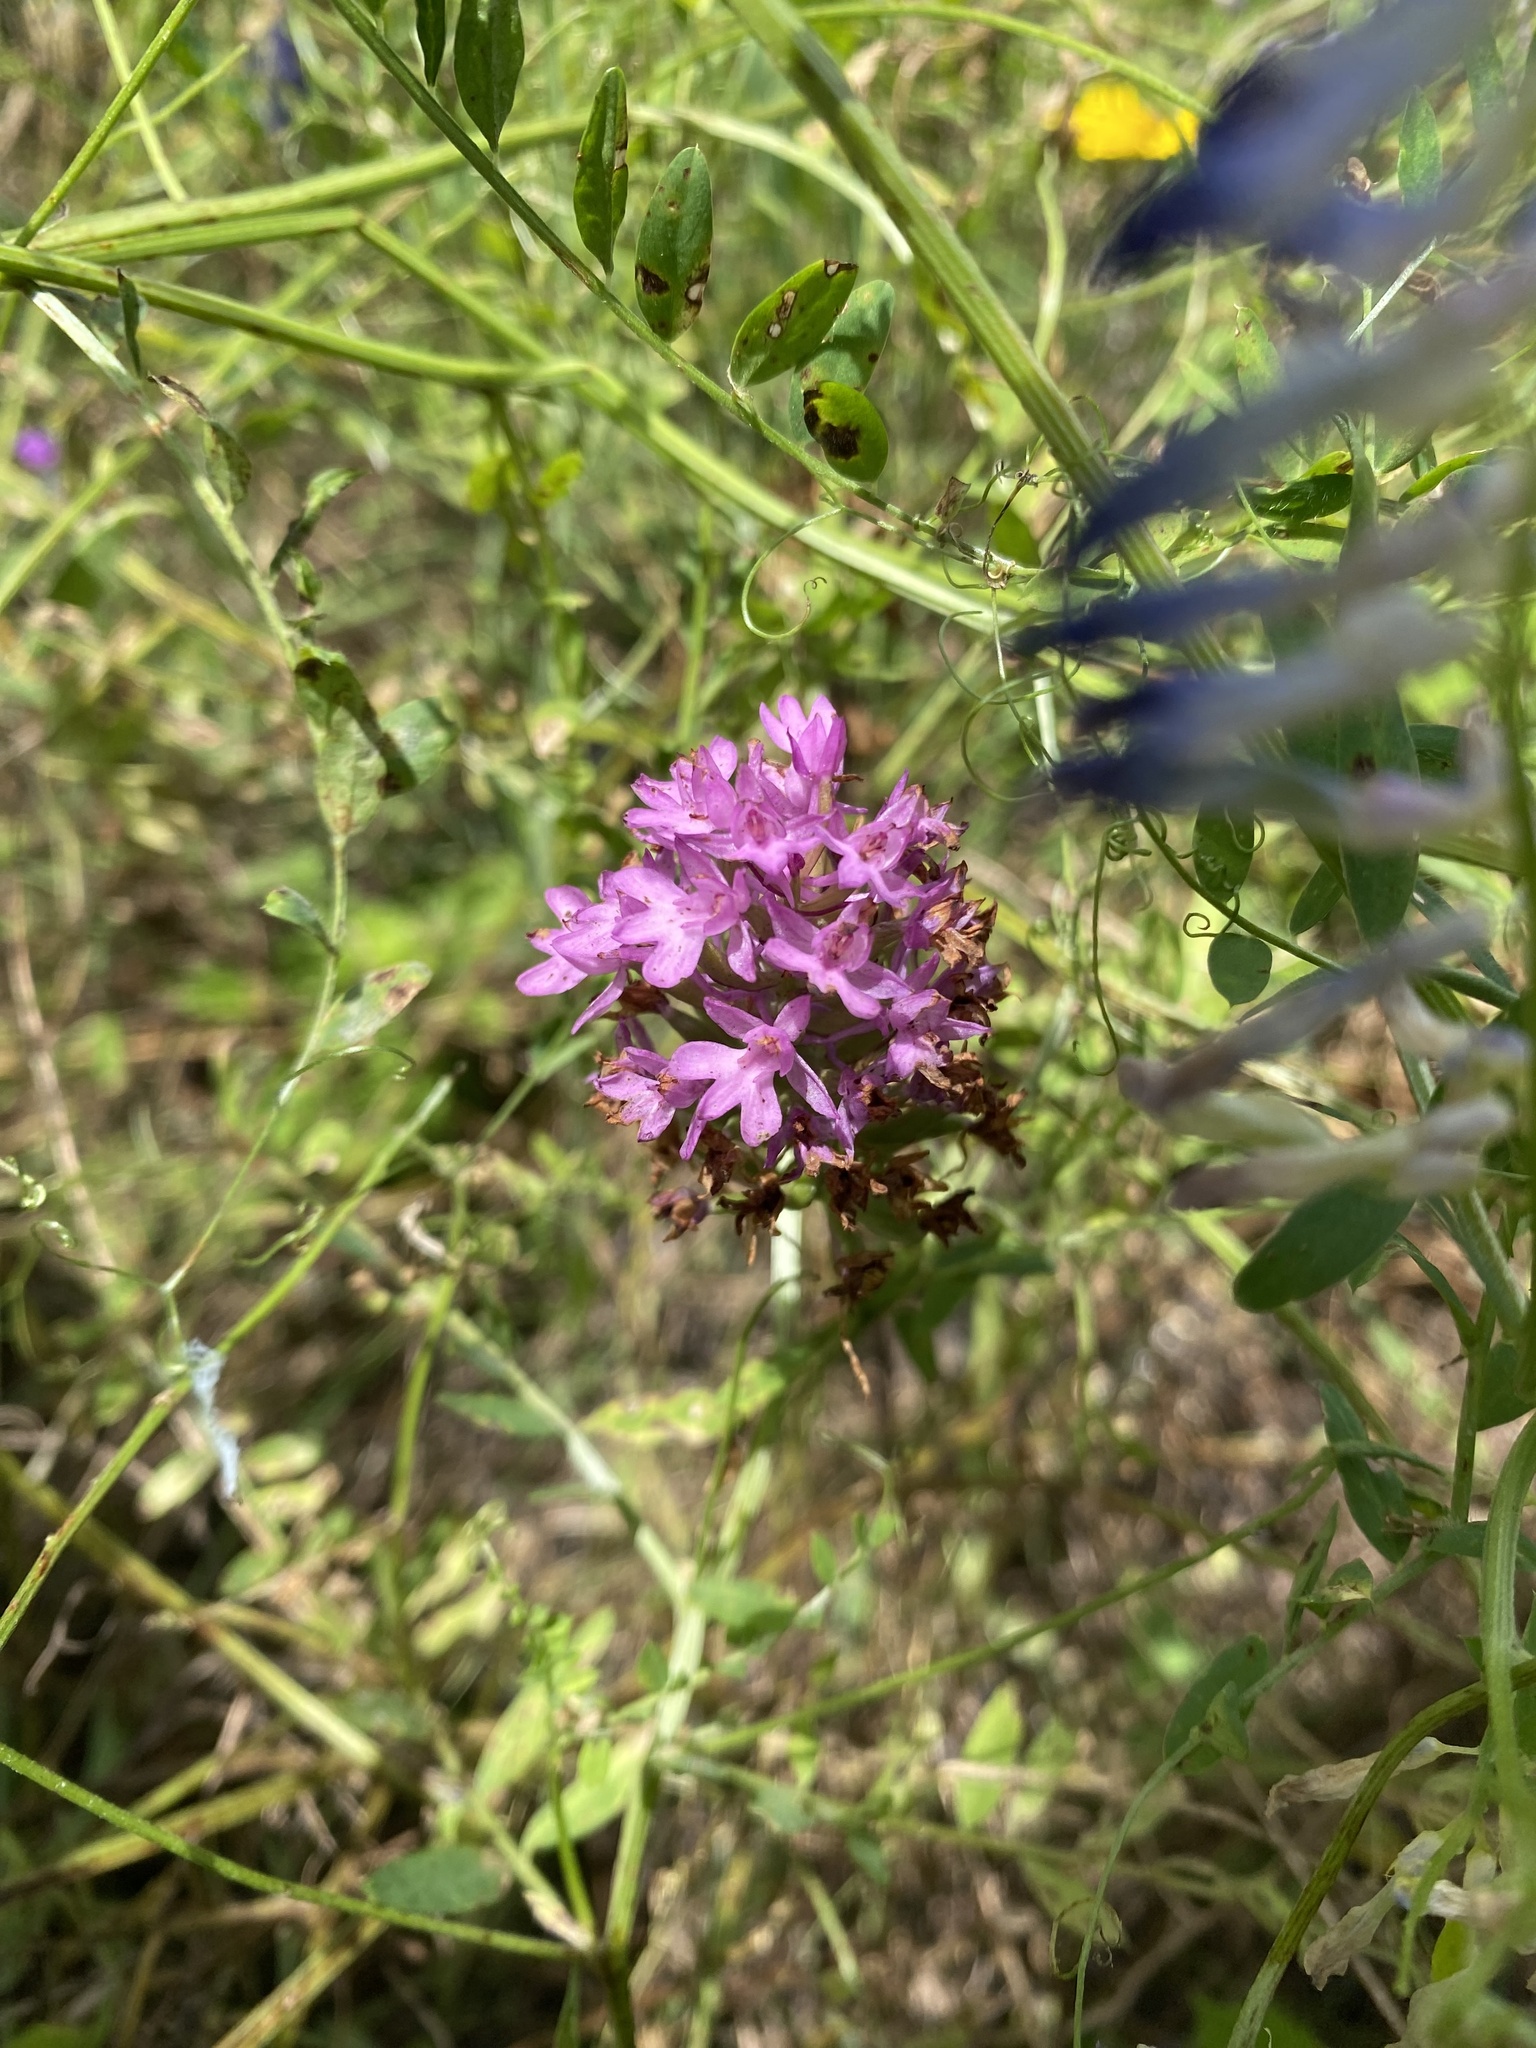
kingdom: Plantae
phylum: Tracheophyta
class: Liliopsida
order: Asparagales
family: Orchidaceae
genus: Anacamptis
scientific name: Anacamptis pyramidalis
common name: Pyramidal orchid
